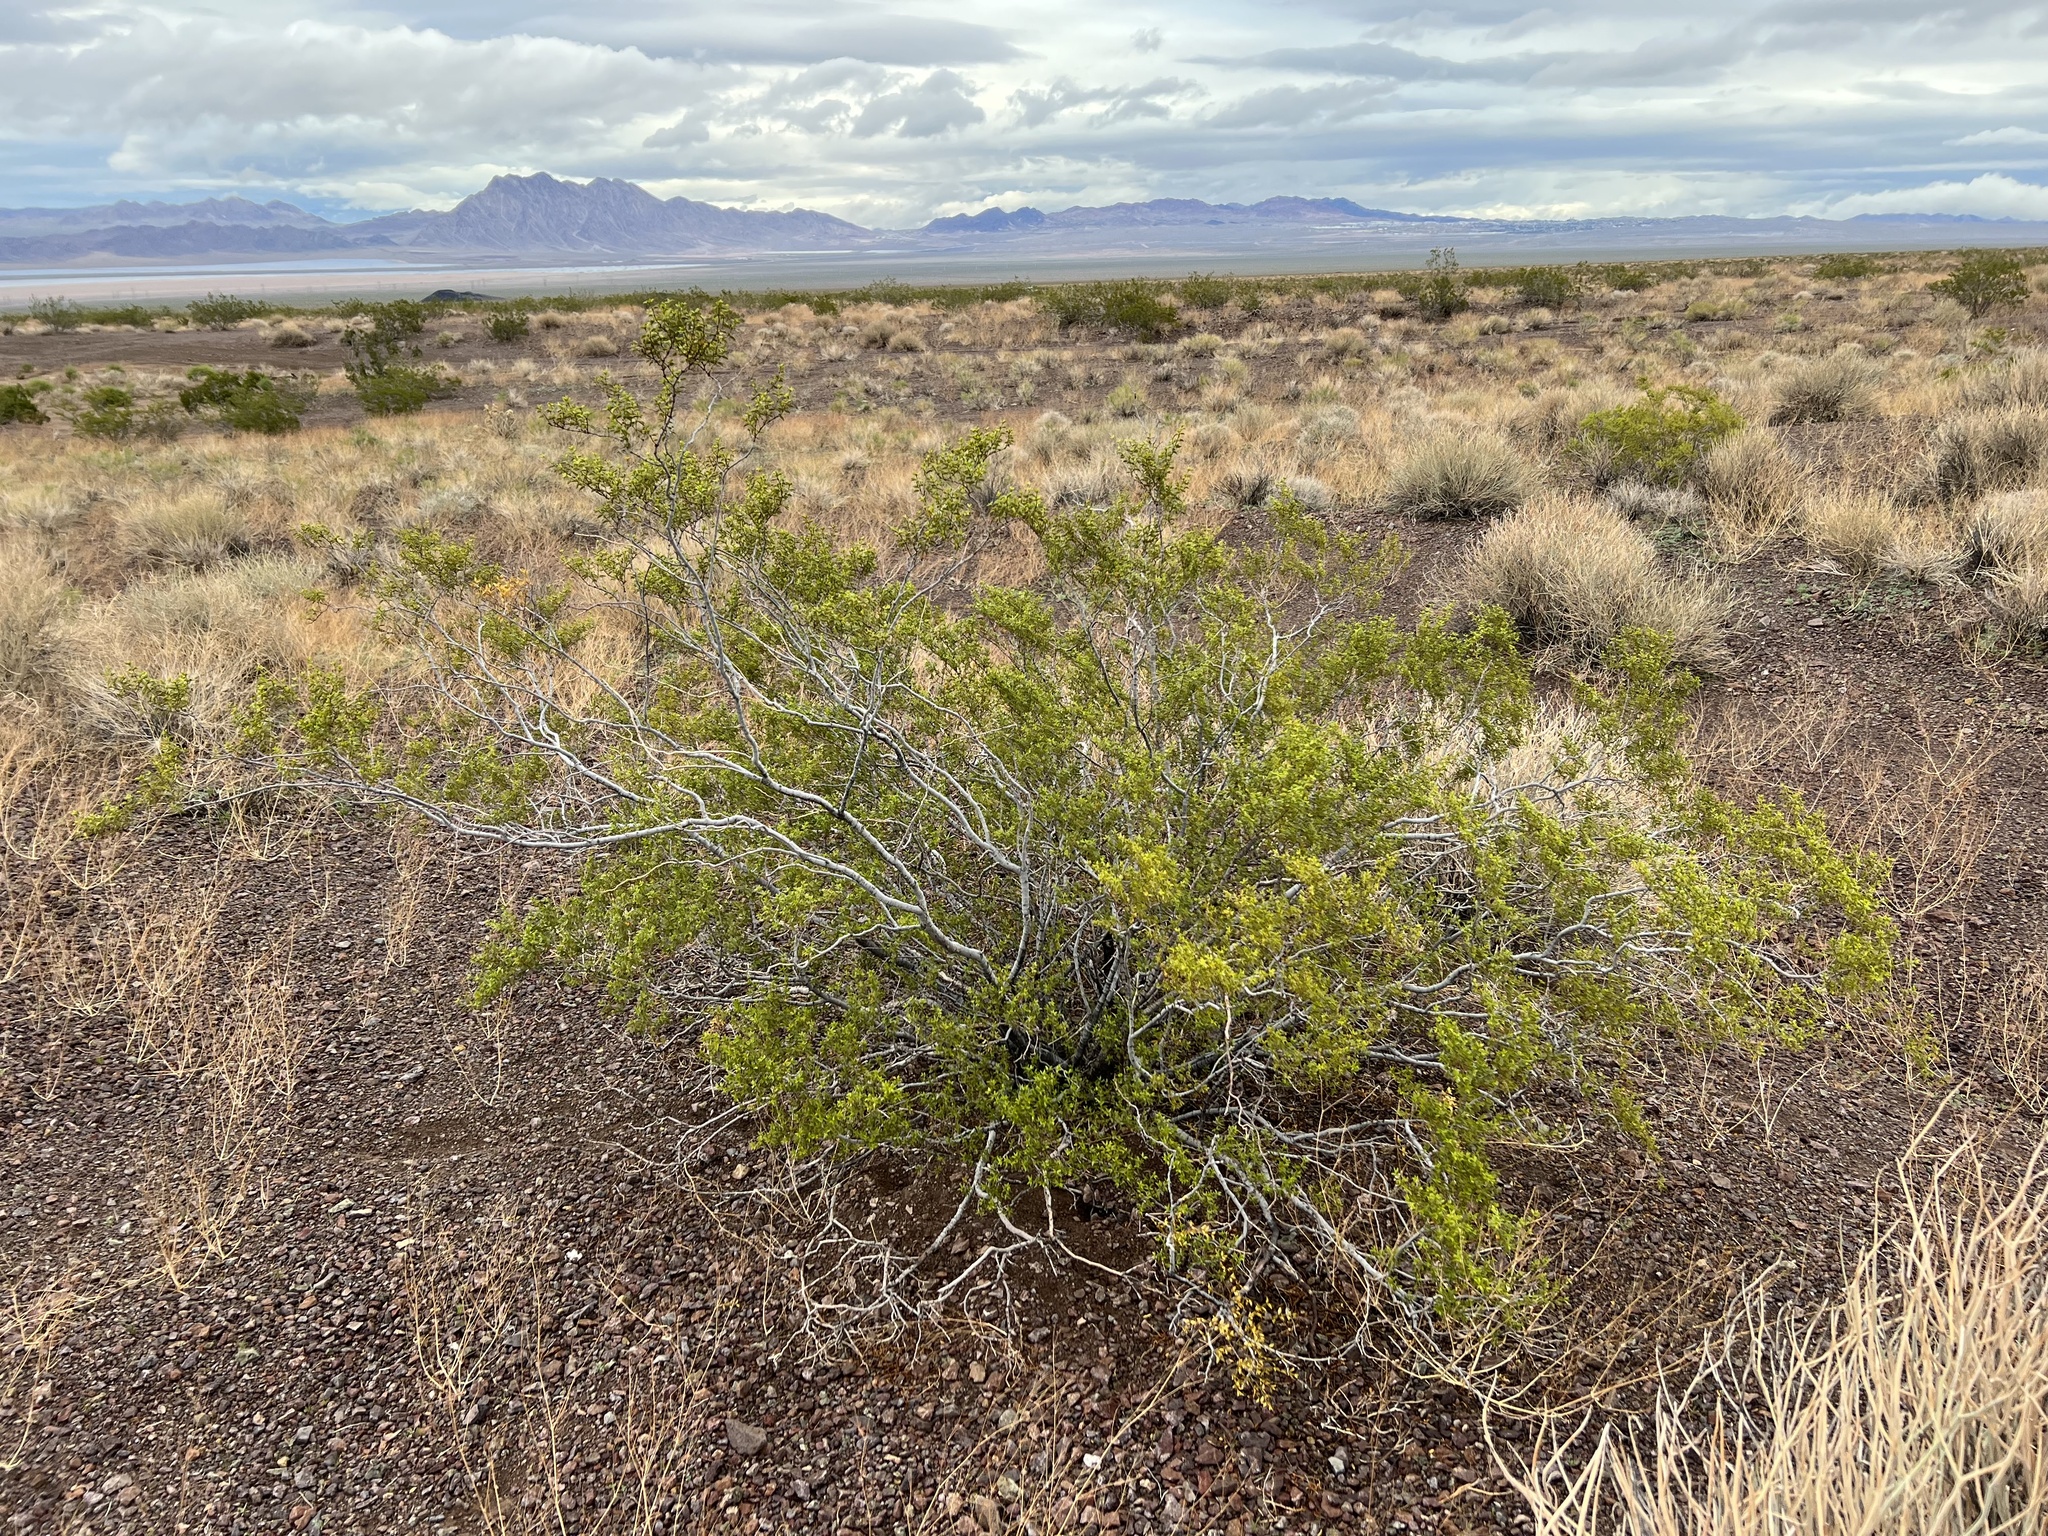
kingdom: Plantae
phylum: Tracheophyta
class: Magnoliopsida
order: Zygophyllales
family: Zygophyllaceae
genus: Larrea
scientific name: Larrea tridentata
